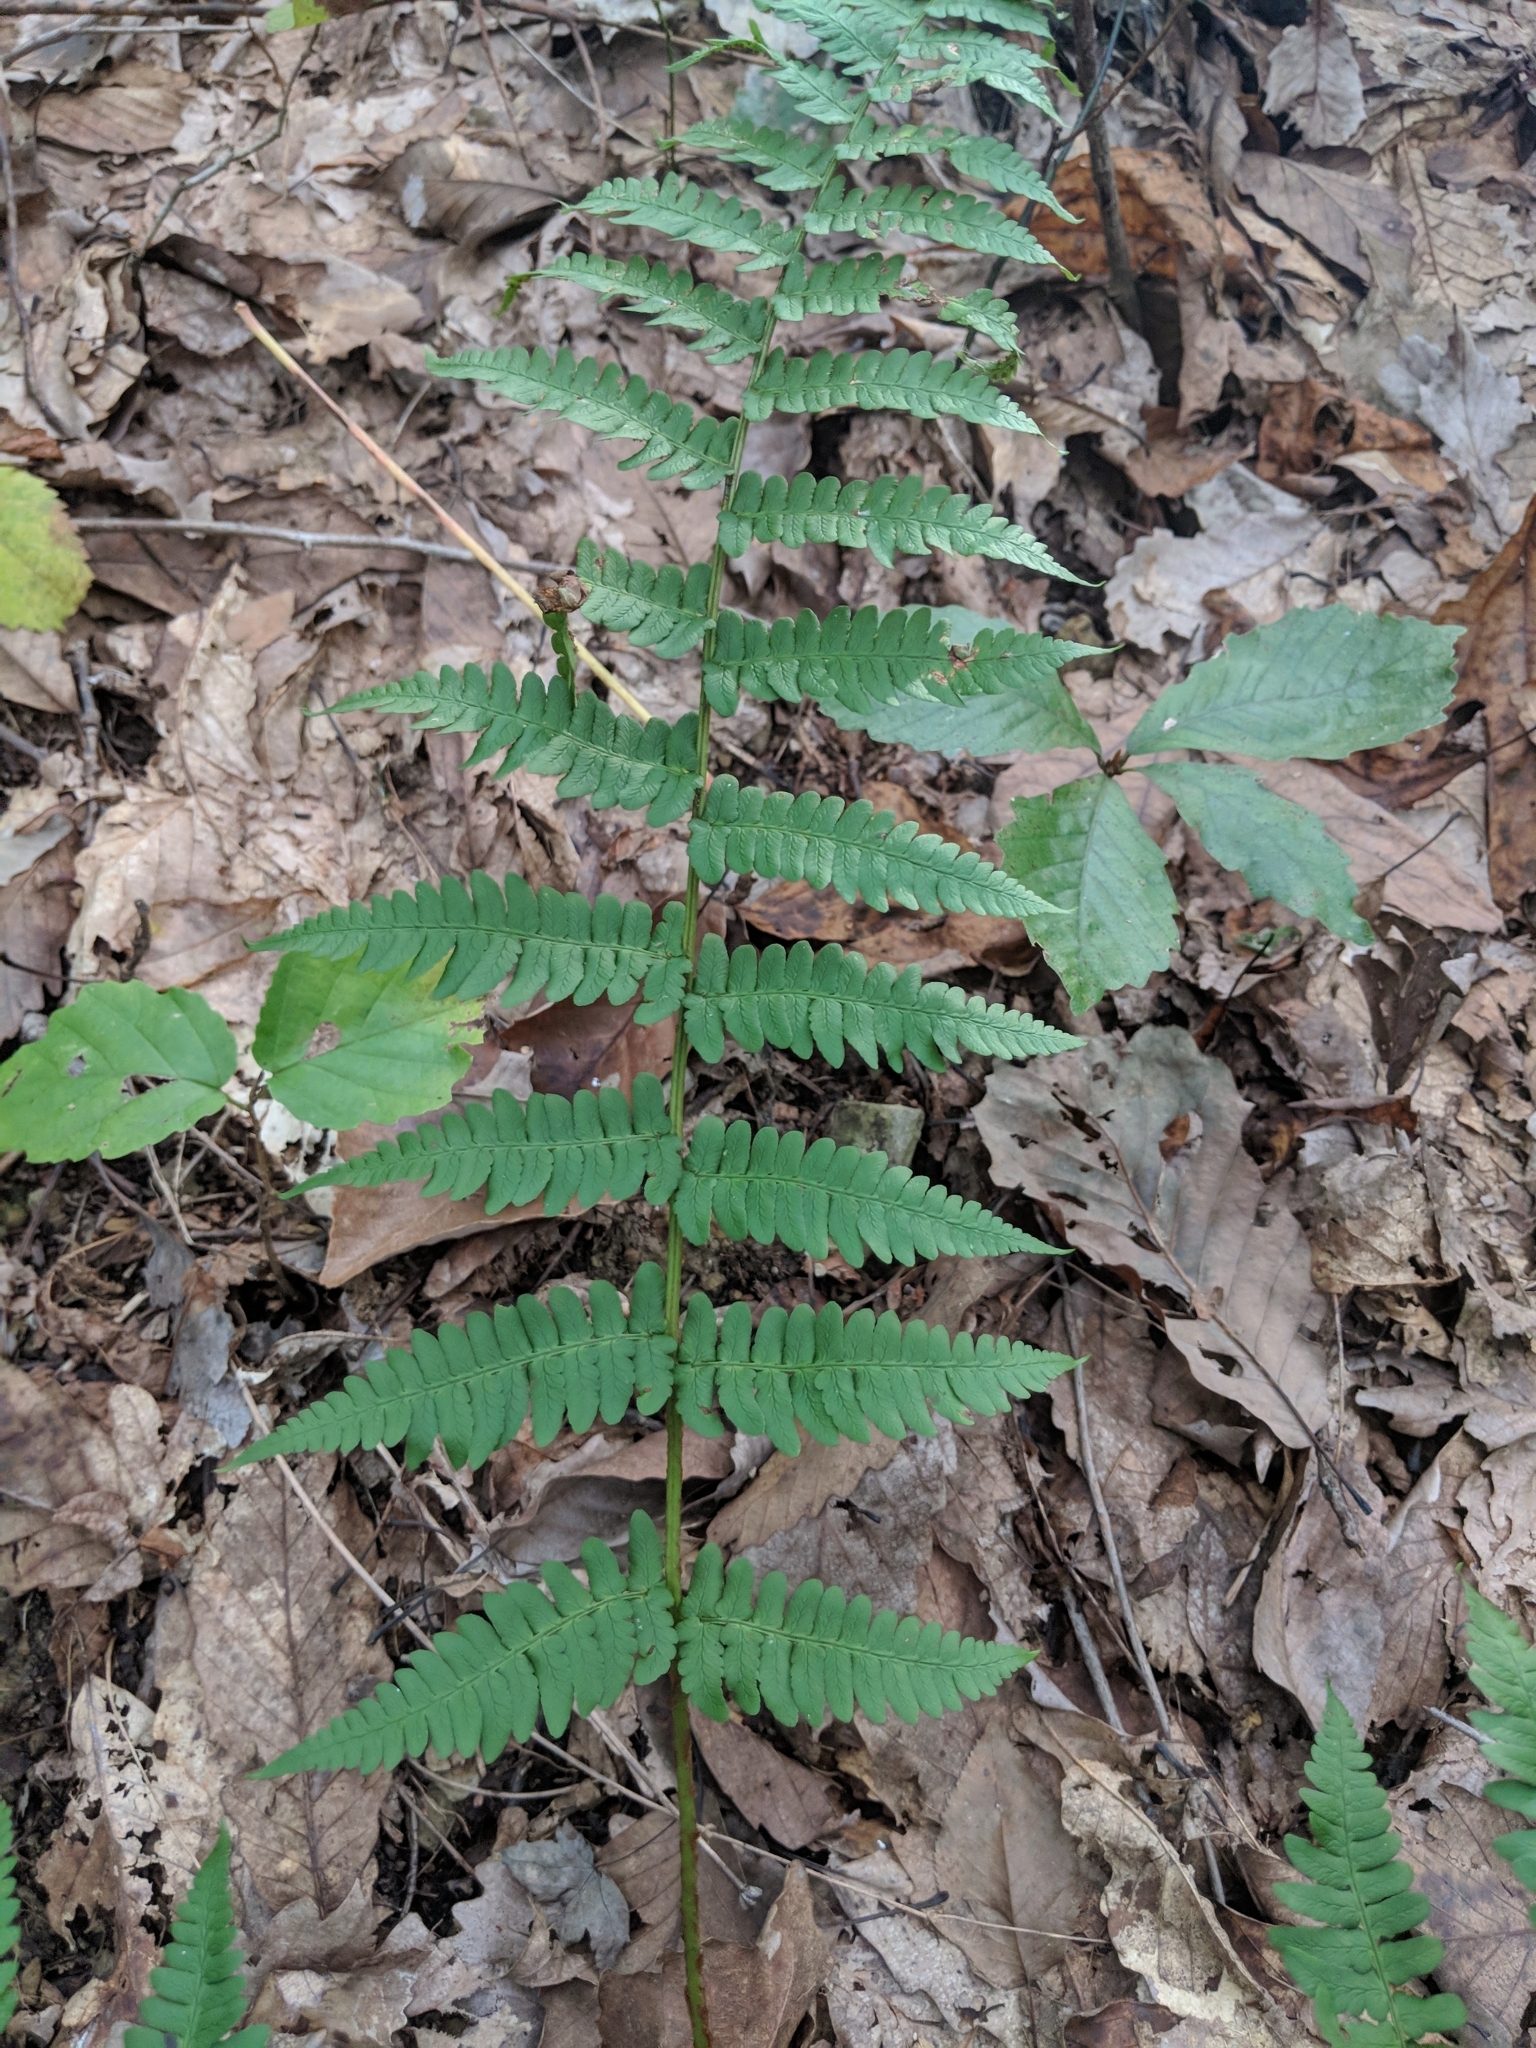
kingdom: Plantae
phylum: Tracheophyta
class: Polypodiopsida
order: Polypodiales
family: Dryopteridaceae
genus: Dryopteris
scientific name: Dryopteris marginalis
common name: Marginal wood fern
